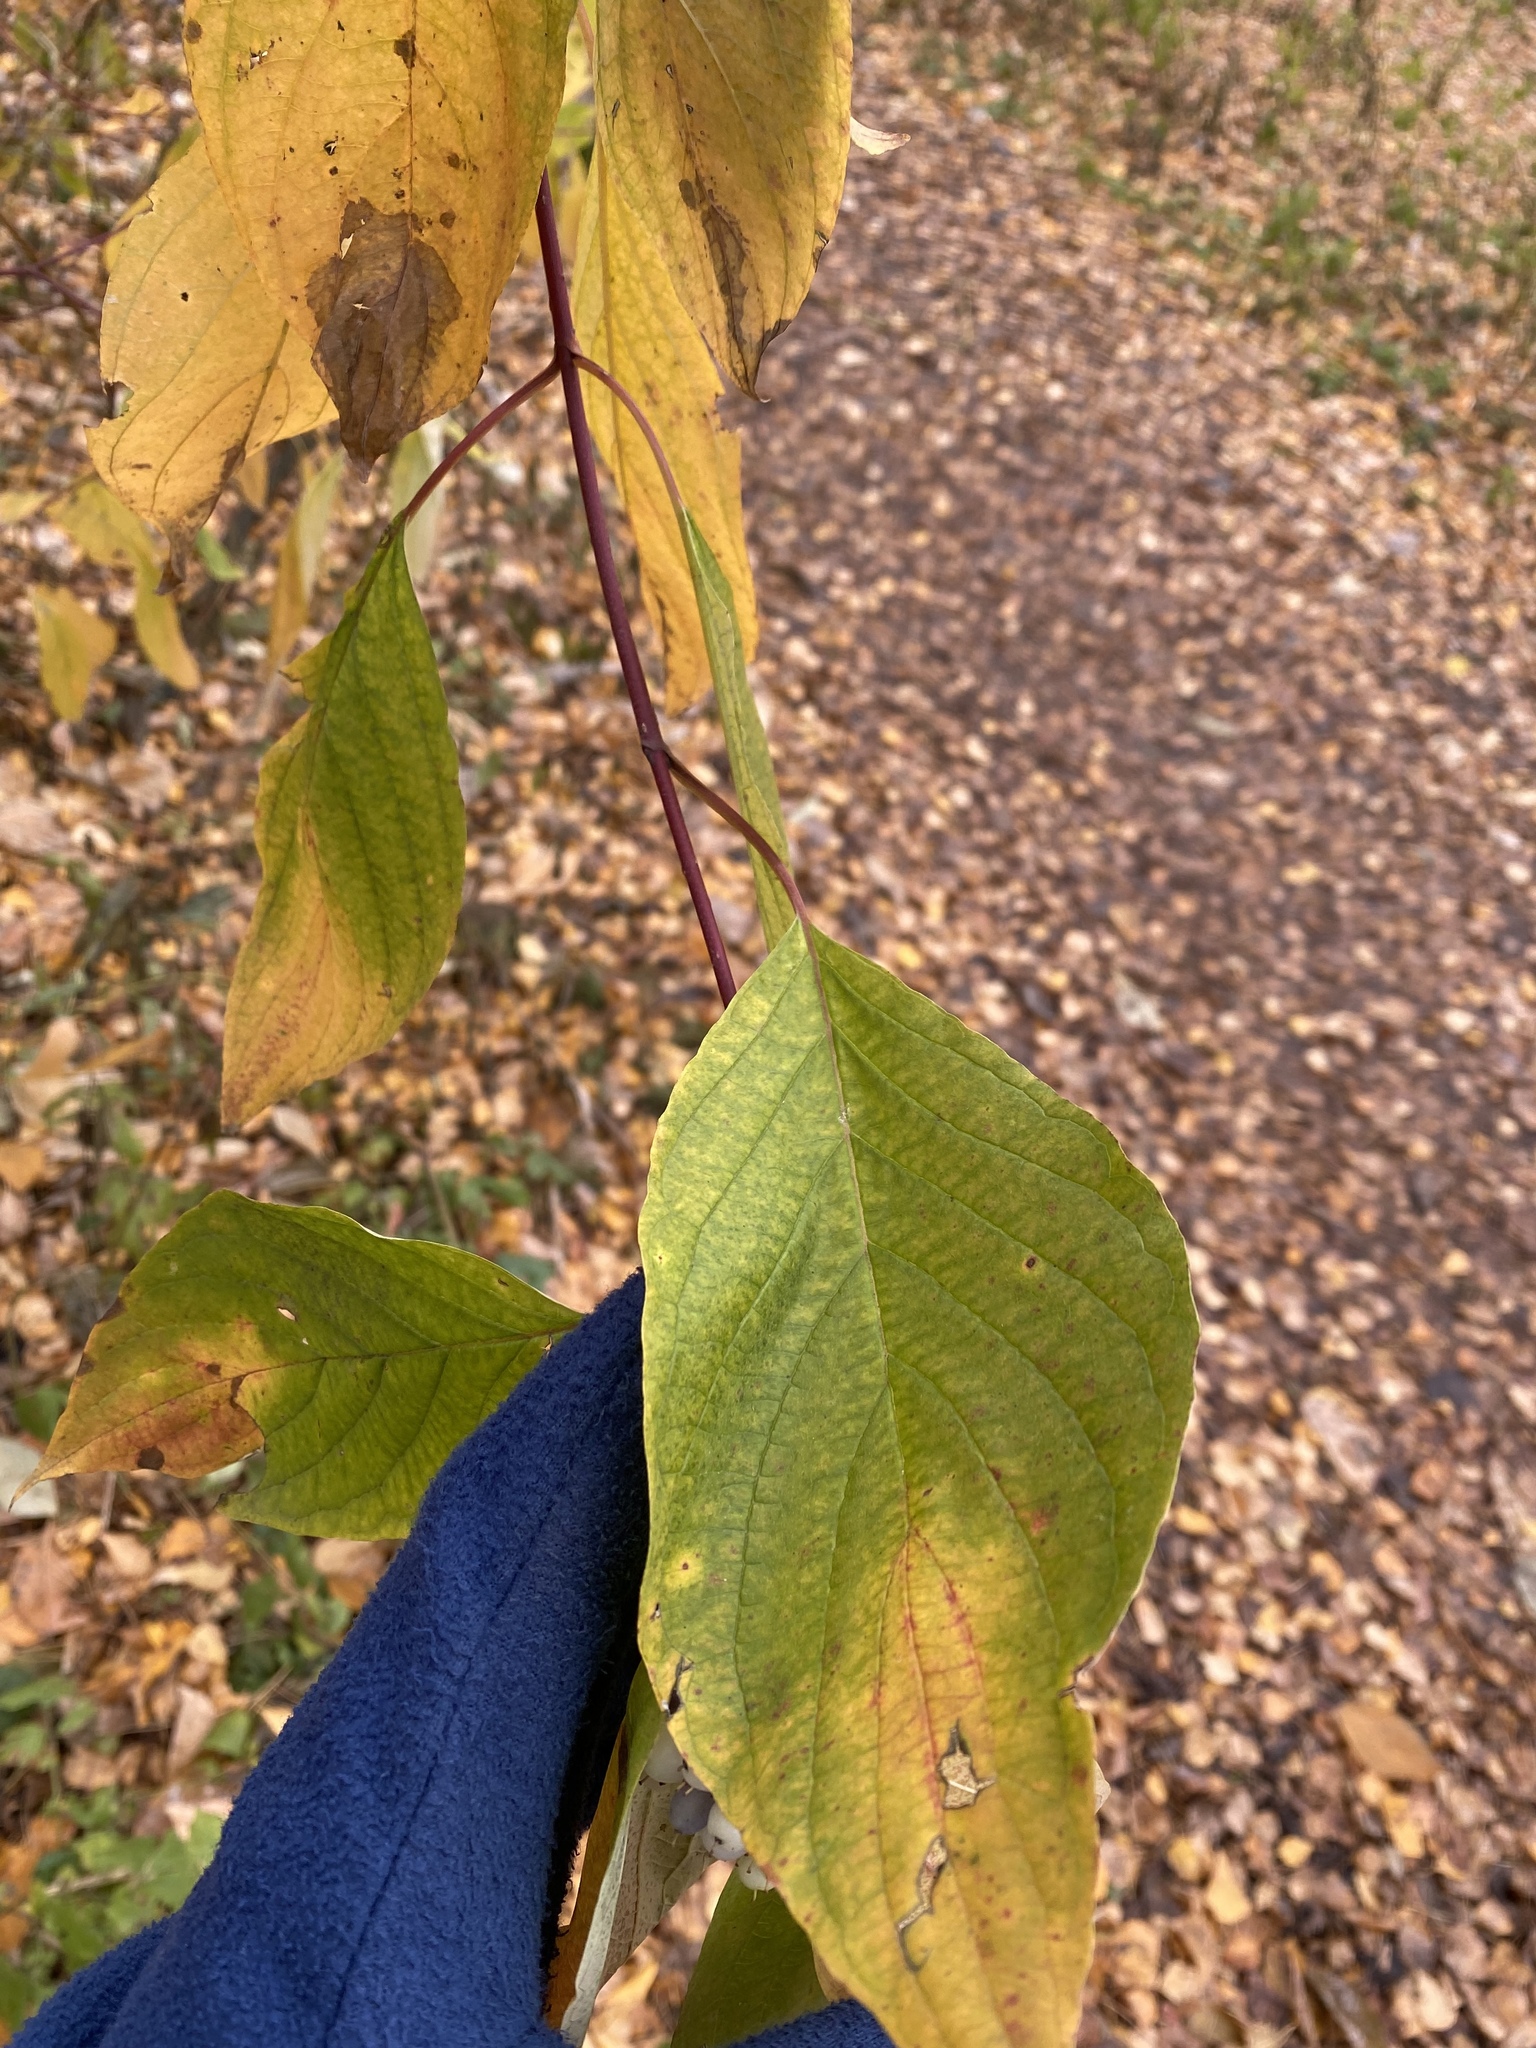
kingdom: Plantae
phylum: Tracheophyta
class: Magnoliopsida
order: Cornales
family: Cornaceae
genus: Cornus
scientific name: Cornus sericea
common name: Red-osier dogwood
